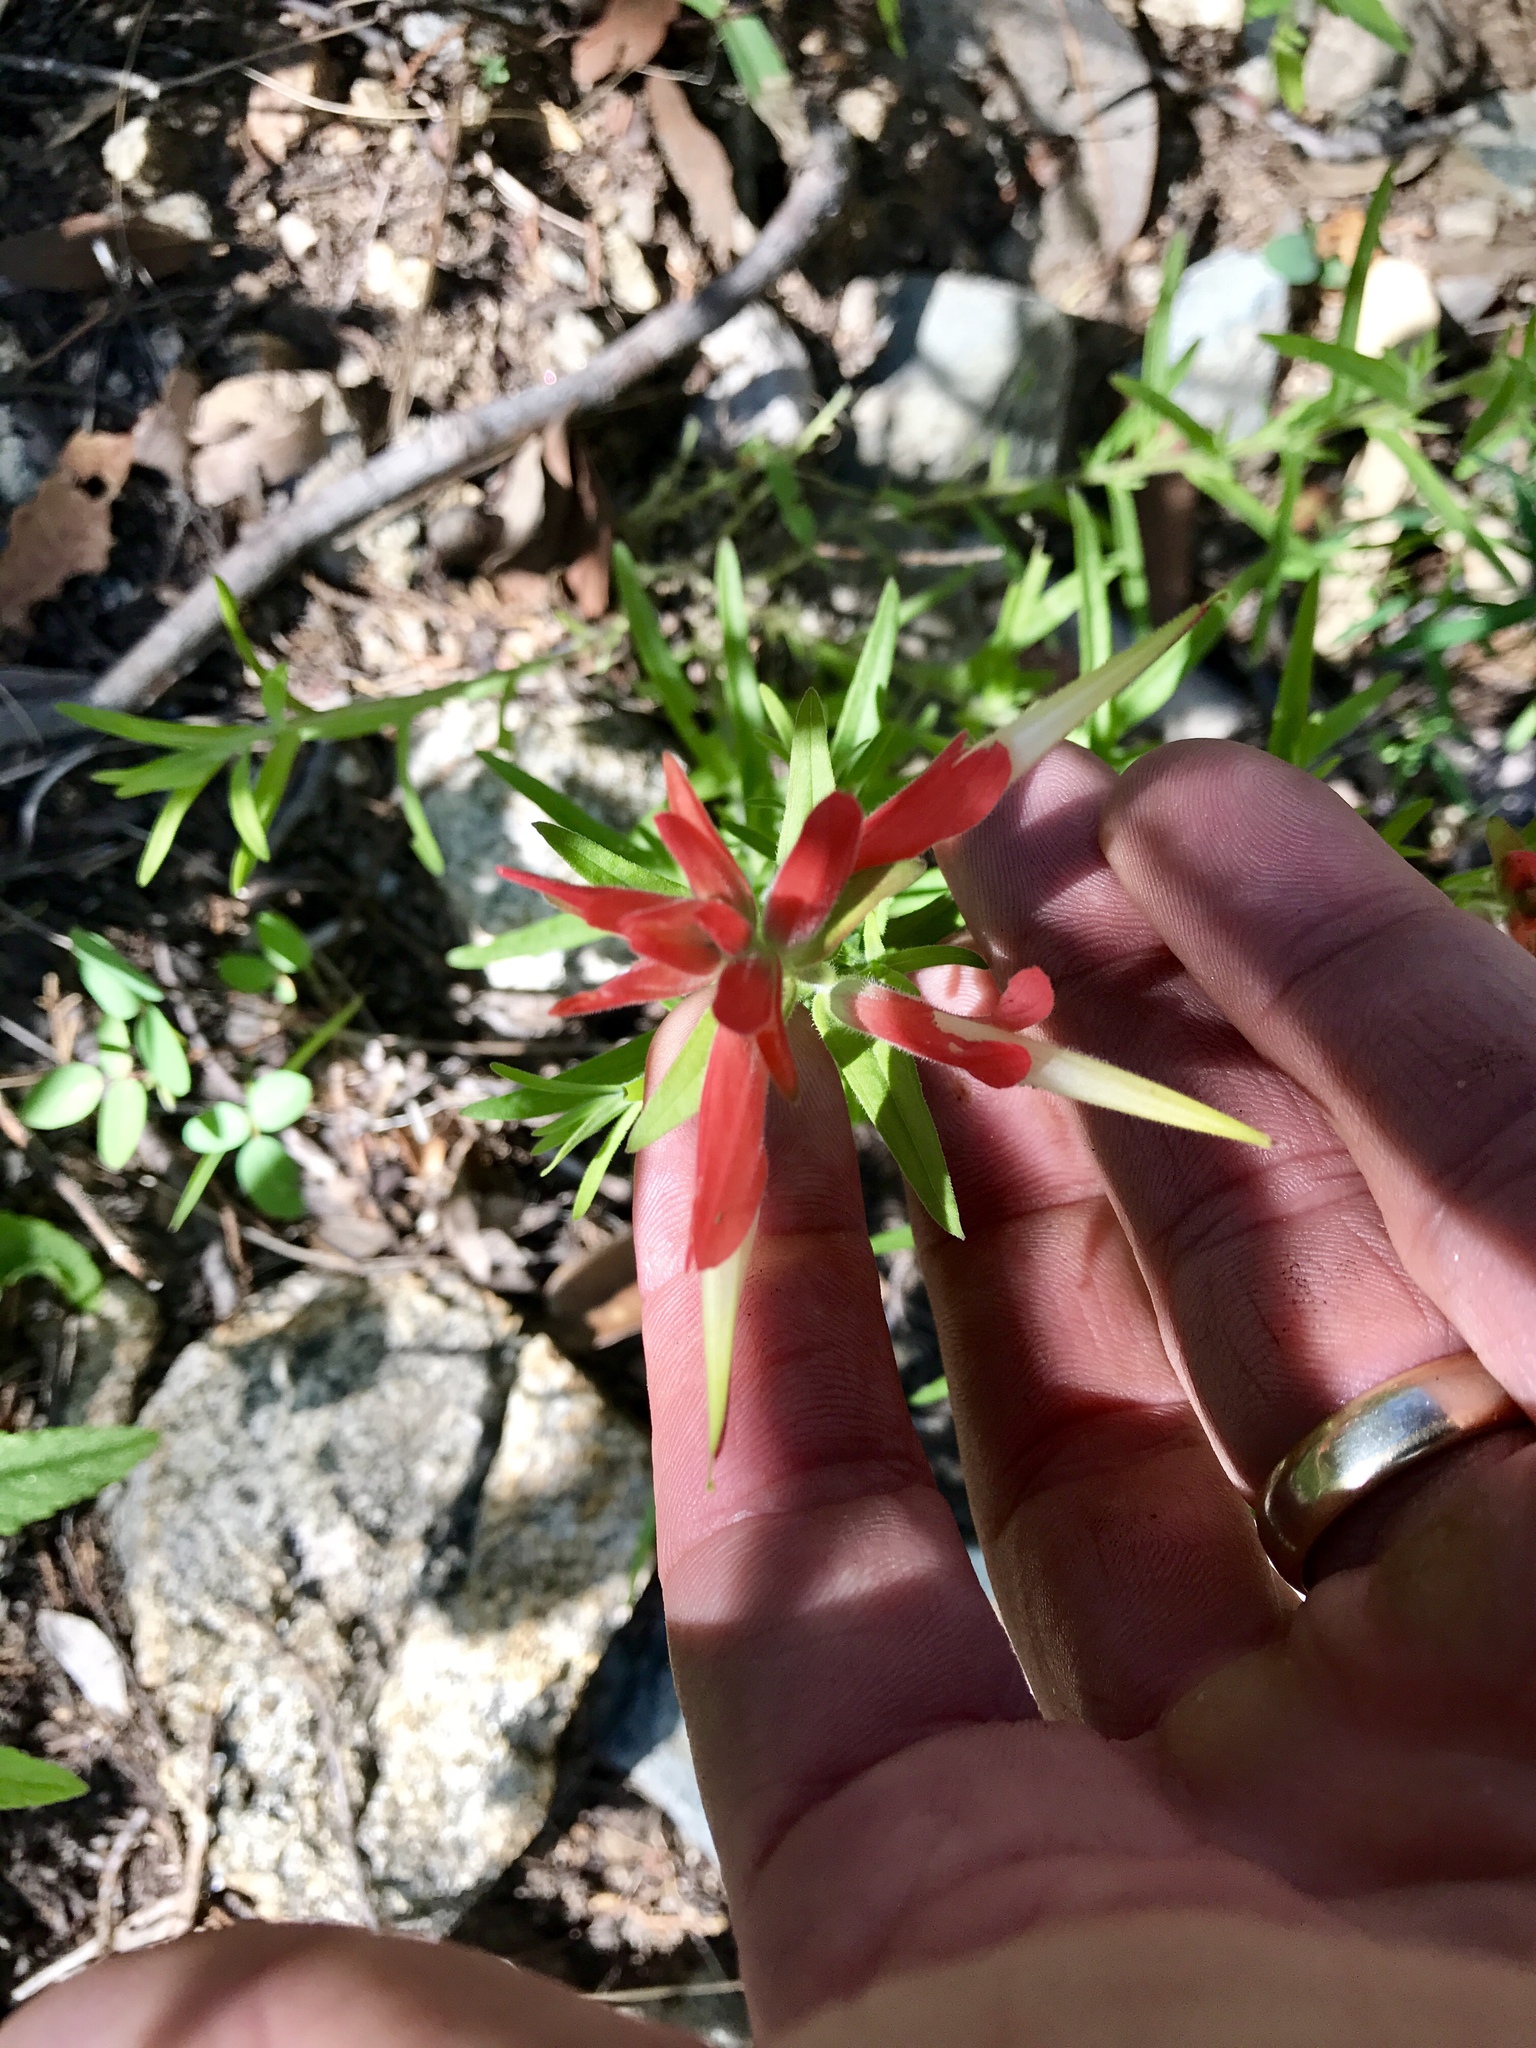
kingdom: Plantae
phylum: Tracheophyta
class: Magnoliopsida
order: Lamiales
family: Orobanchaceae
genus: Castilleja
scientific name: Castilleja tenuiflora
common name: Santa catalina indian paintbrush
